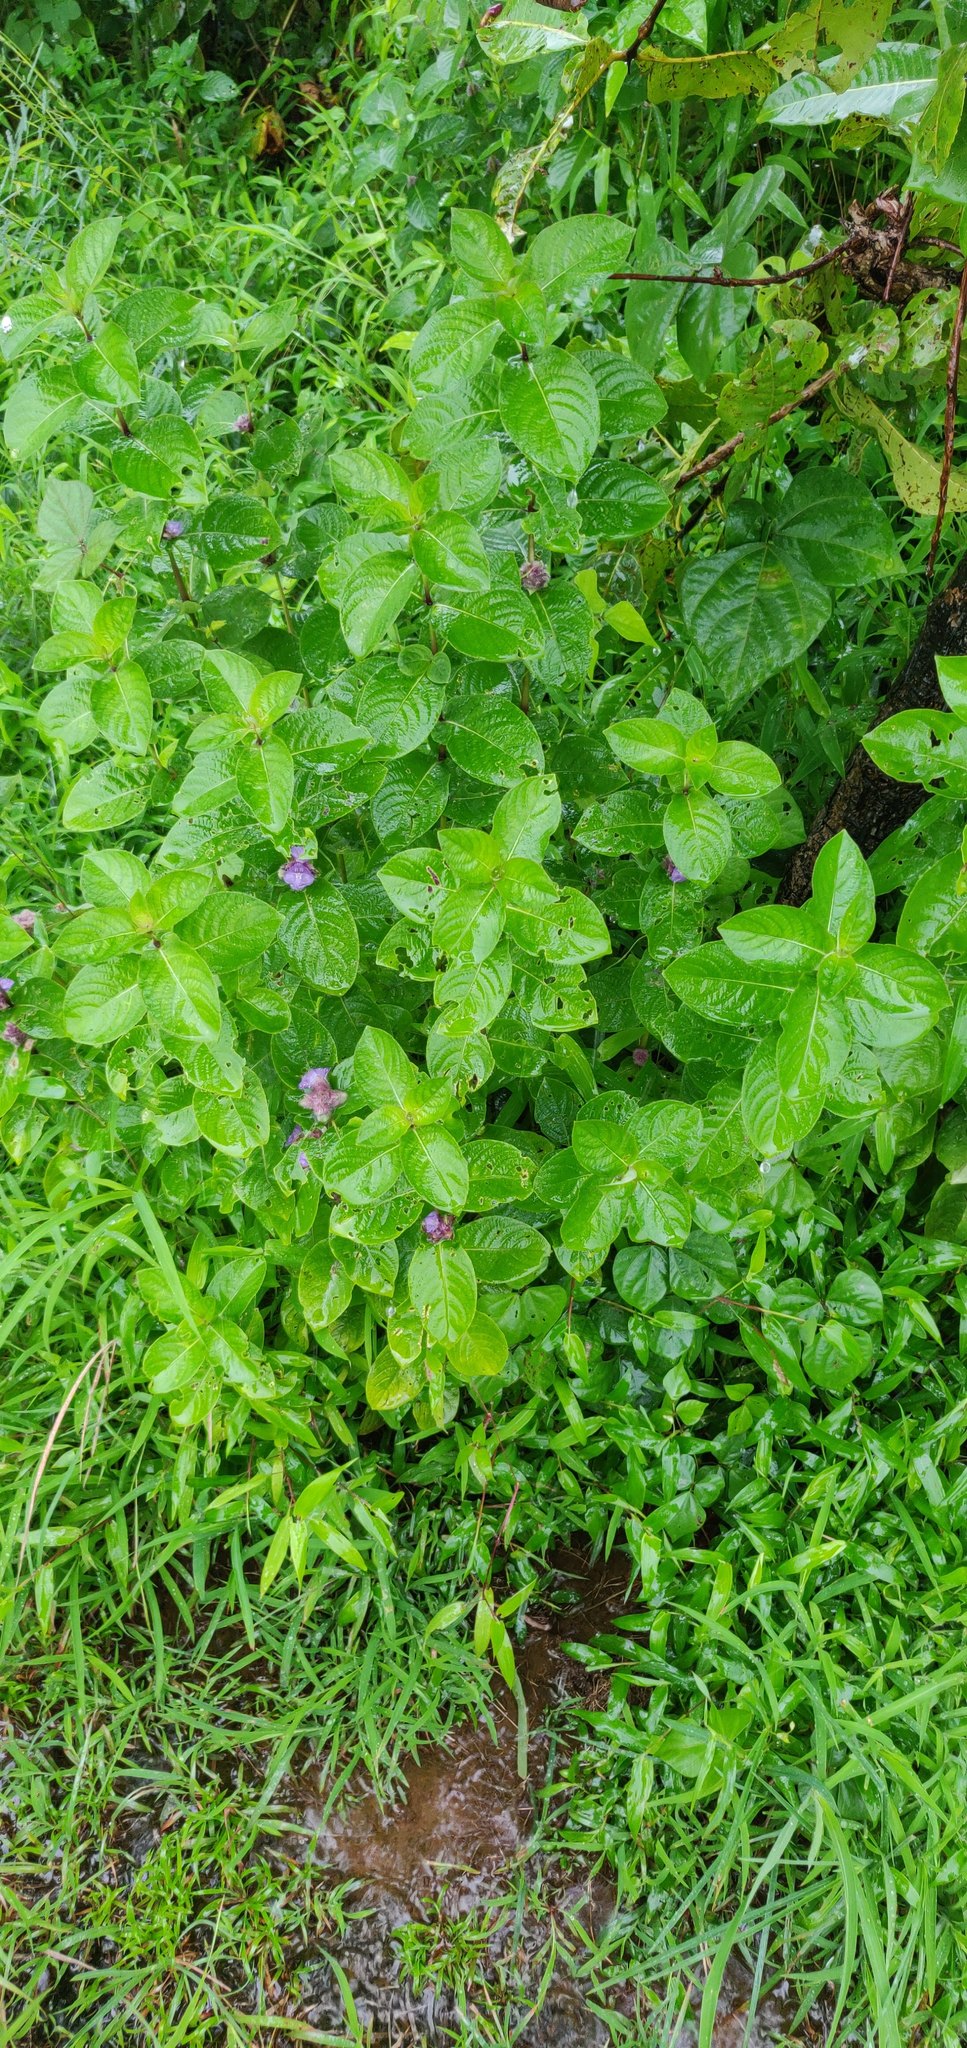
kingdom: Plantae
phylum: Tracheophyta
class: Magnoliopsida
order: Lamiales
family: Acanthaceae
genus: Neuracanthus
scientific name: Neuracanthus sphaerostachyus
